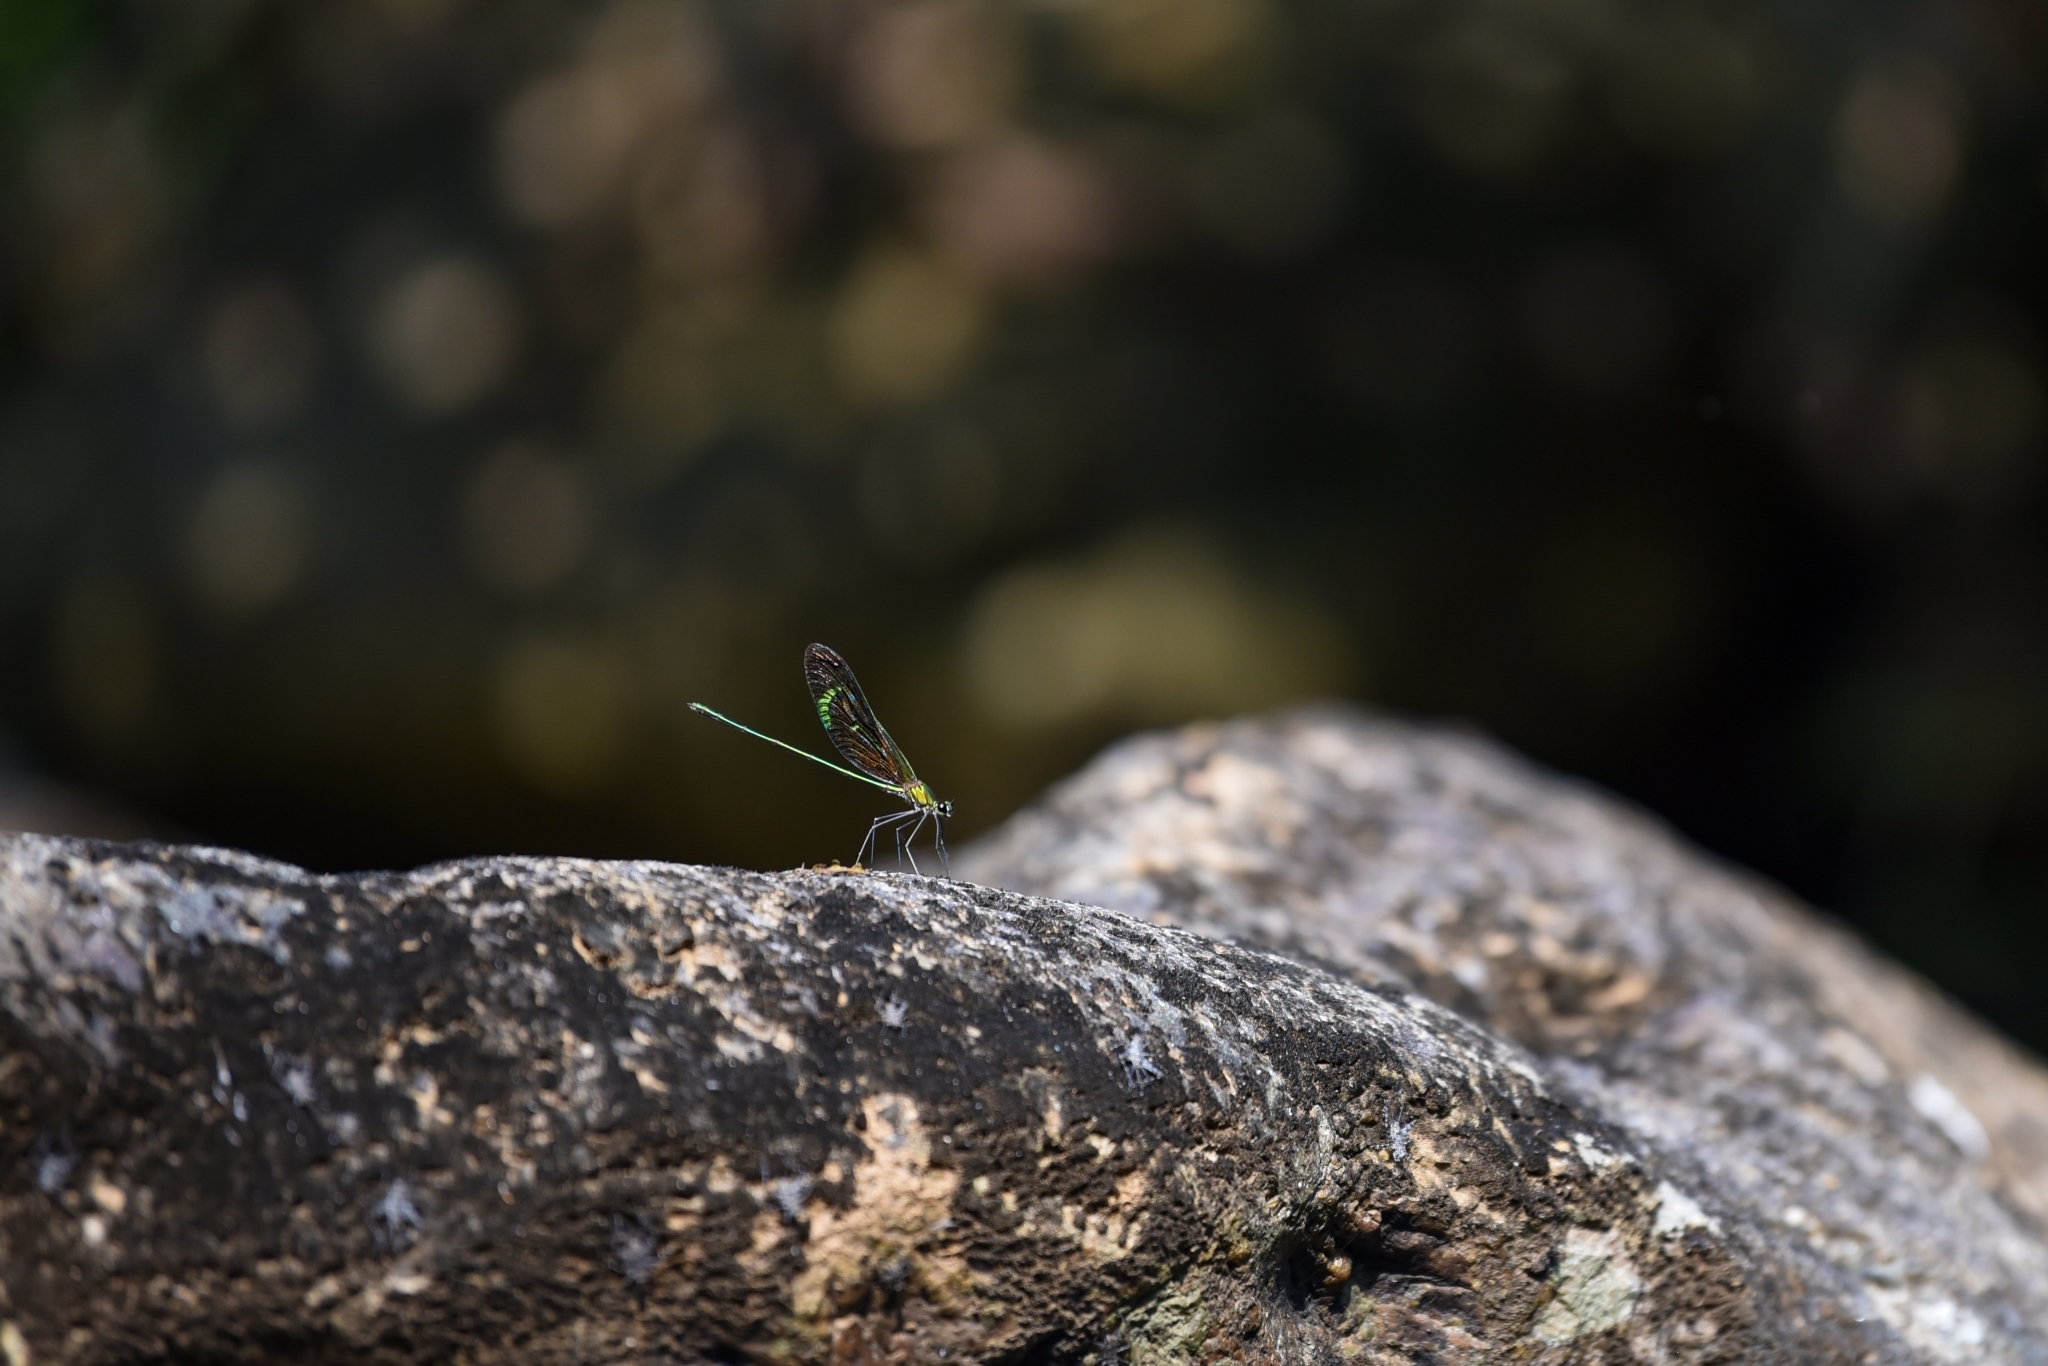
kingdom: Animalia
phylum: Arthropoda
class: Insecta
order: Odonata
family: Calopterygidae
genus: Neurobasis
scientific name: Neurobasis chinensis
